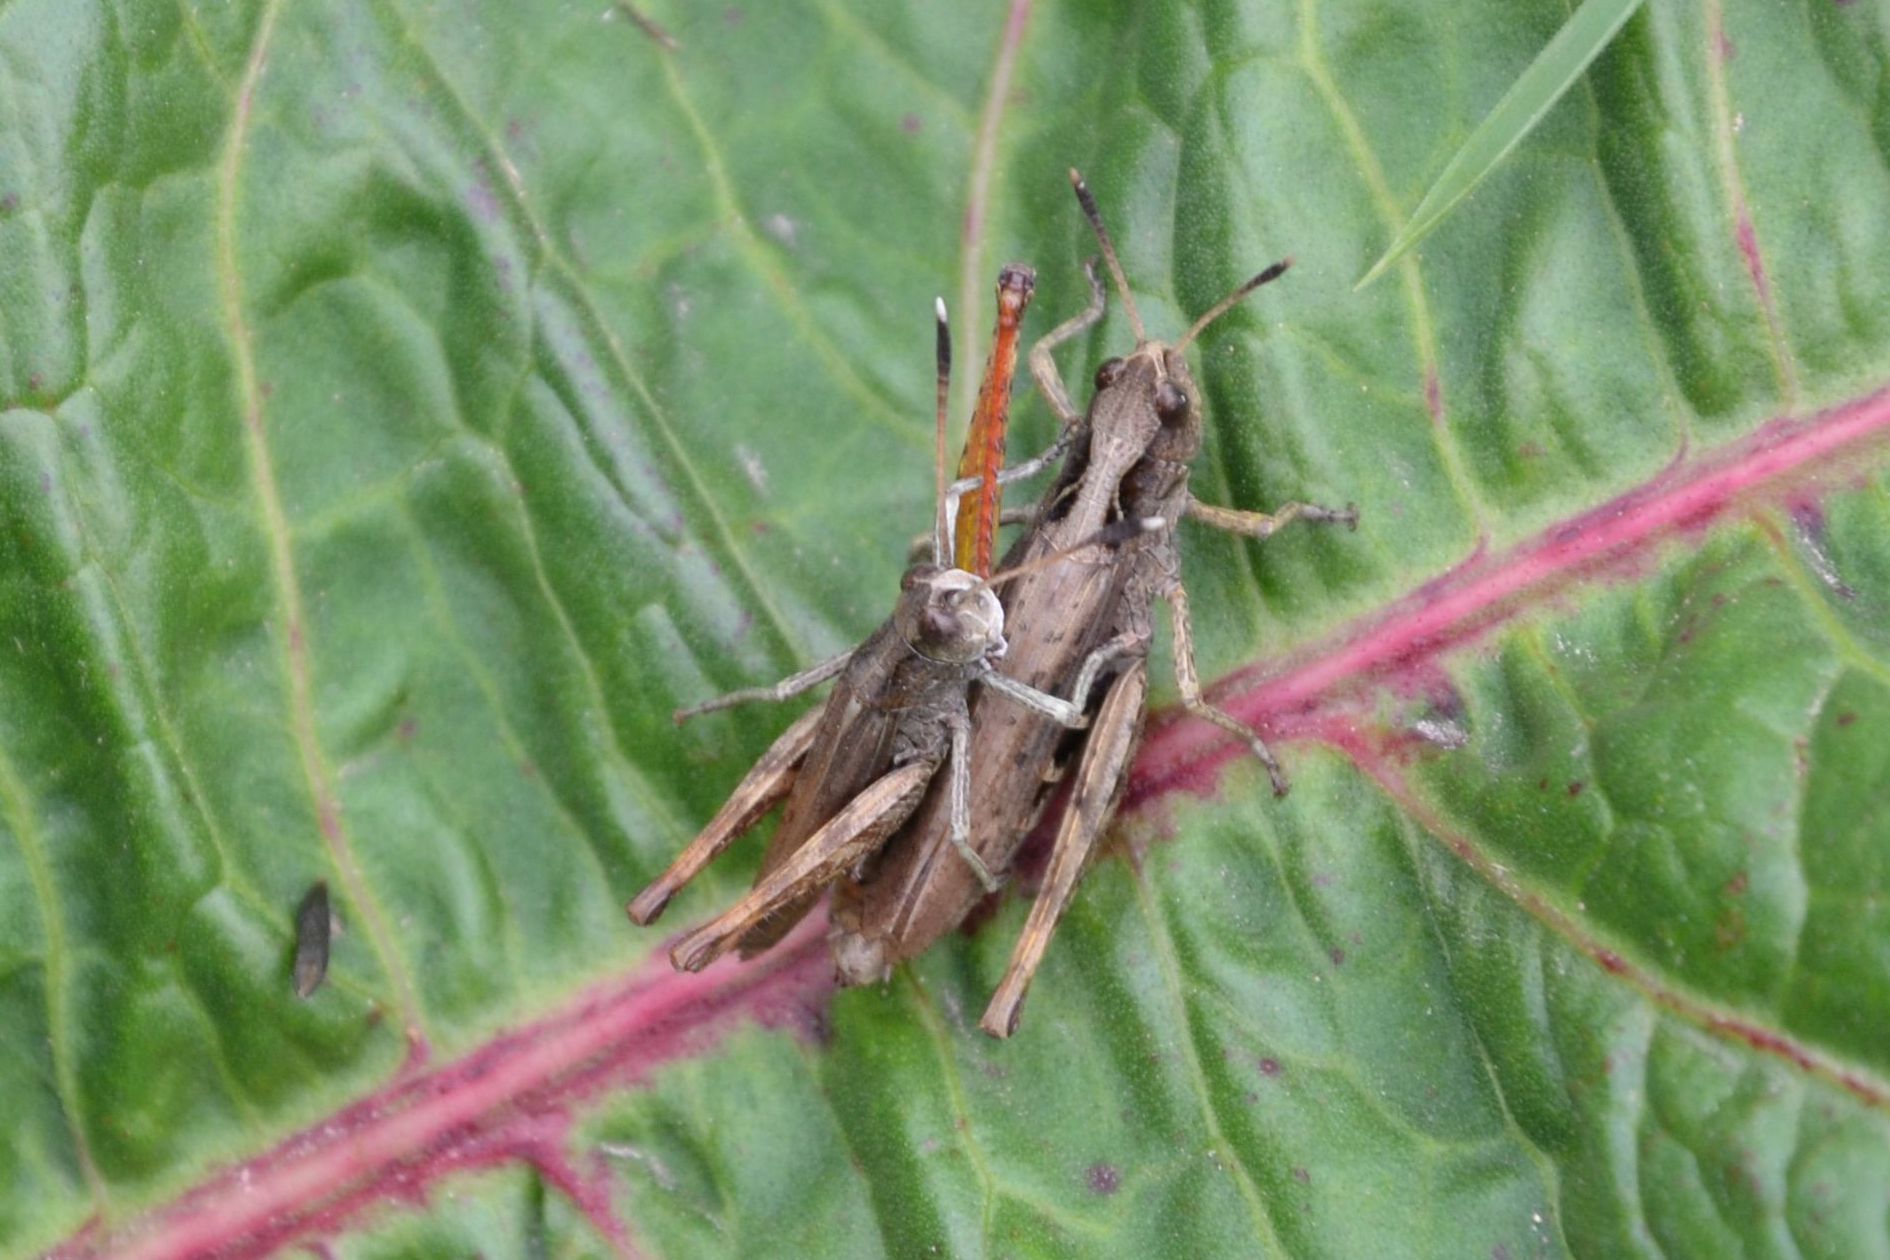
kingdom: Animalia
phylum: Arthropoda
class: Insecta
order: Orthoptera
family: Acrididae
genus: Gomphocerippus
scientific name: Gomphocerippus rufus
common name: Rufous grasshopper
